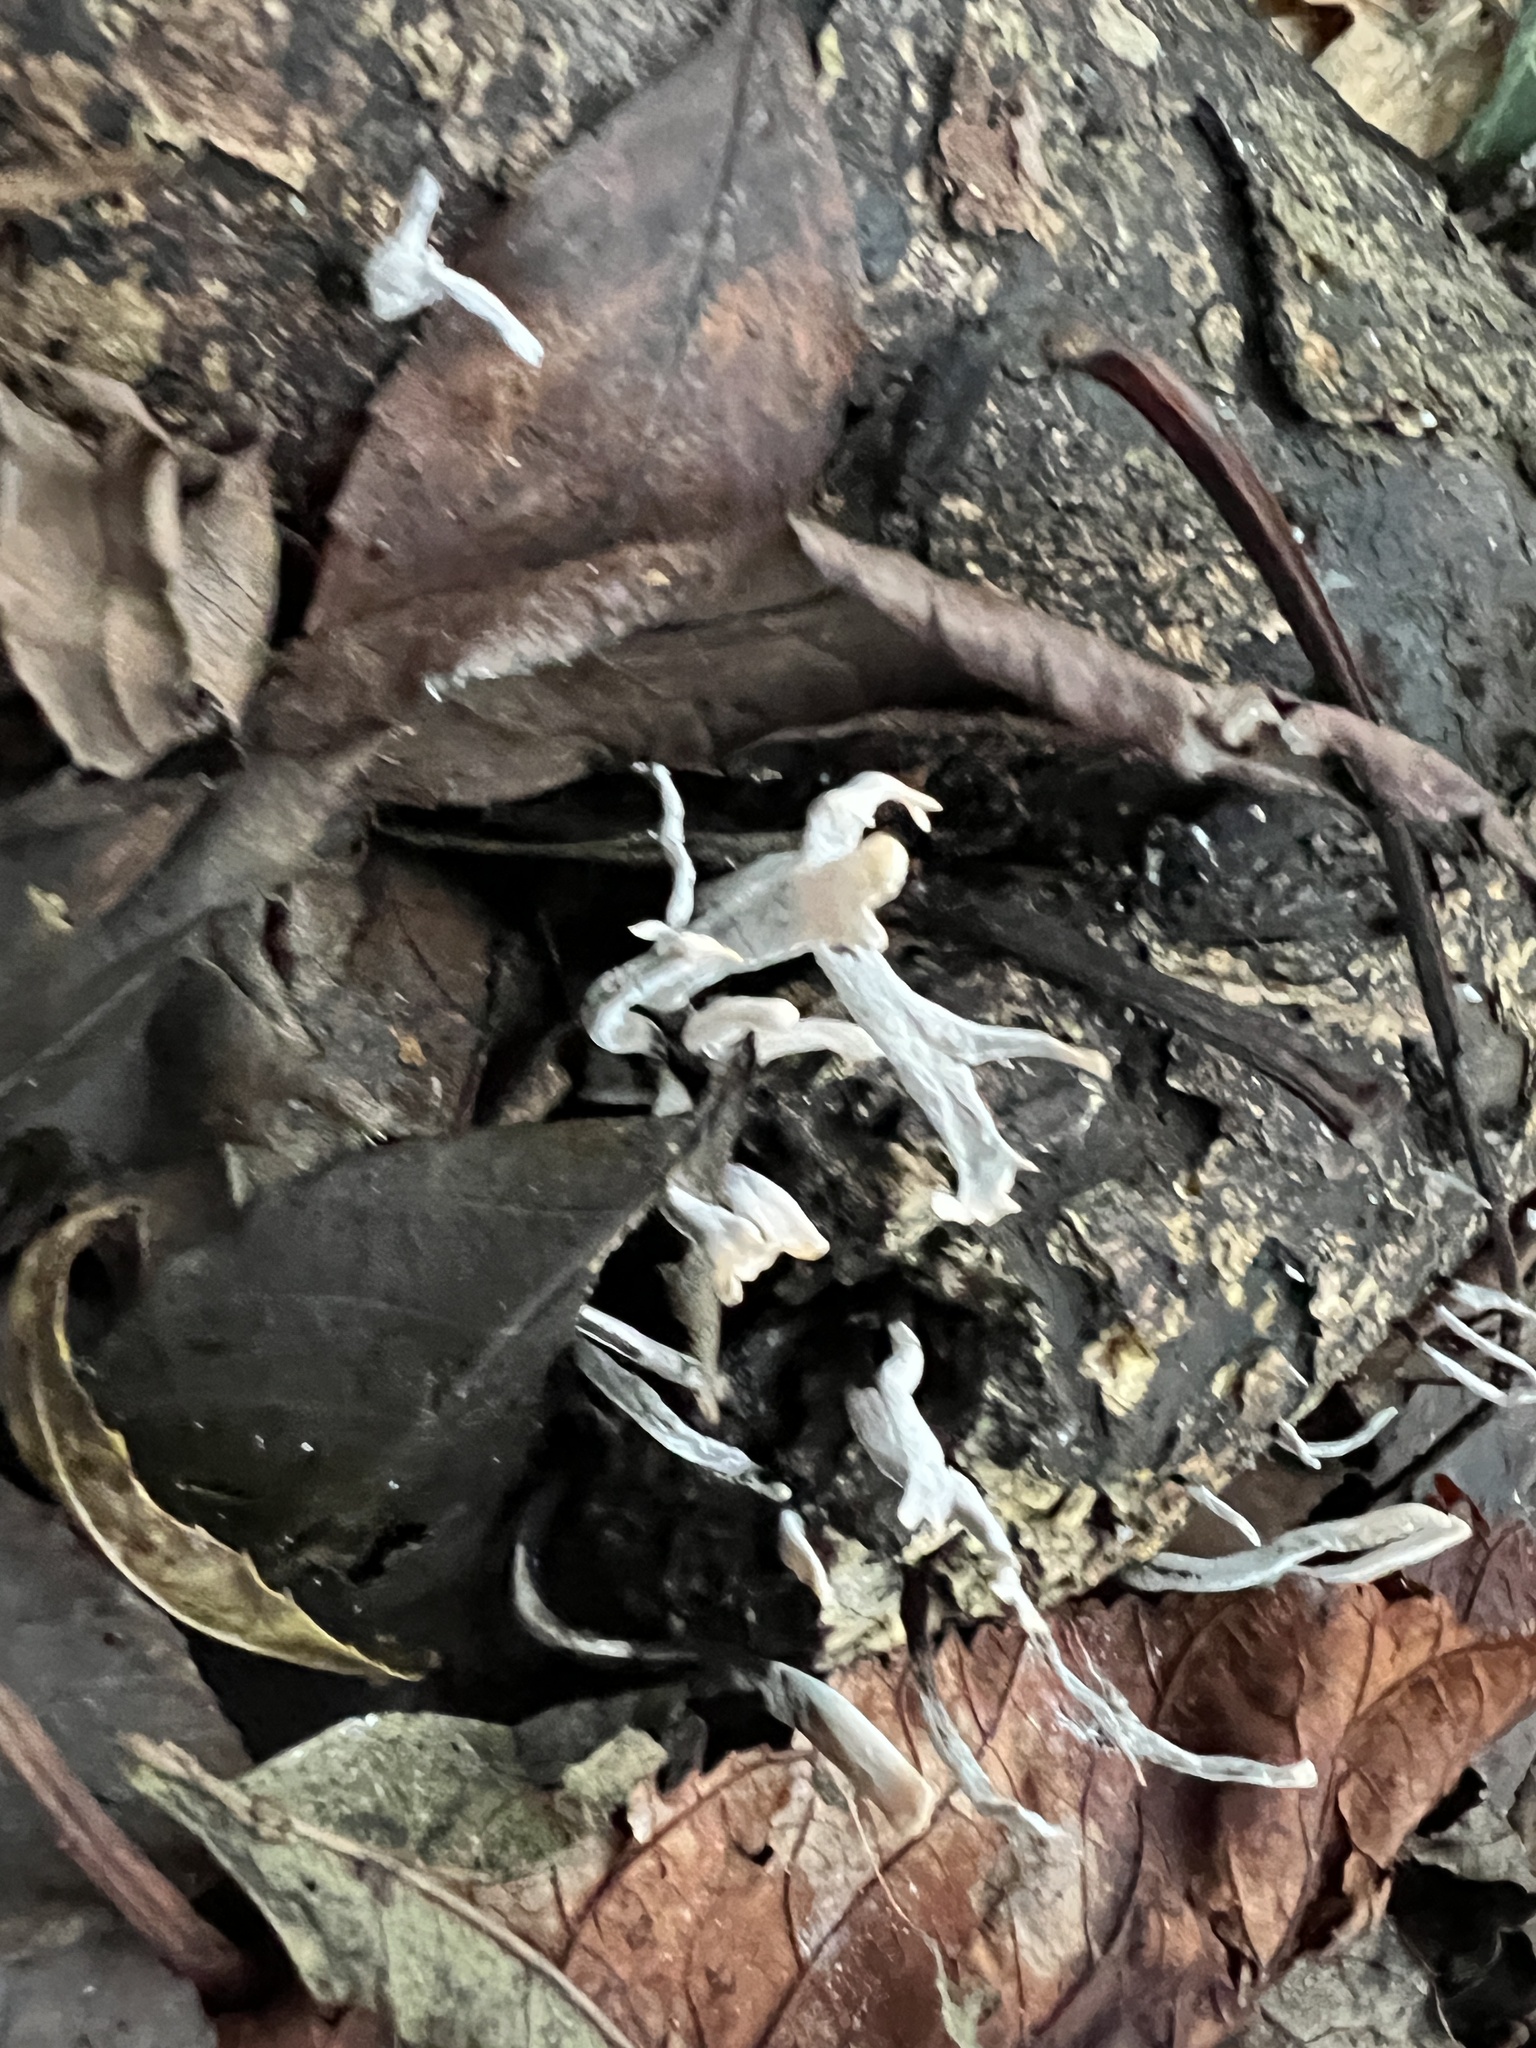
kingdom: Fungi
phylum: Ascomycota
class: Sordariomycetes
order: Xylariales
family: Xylariaceae
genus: Xylaria
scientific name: Xylaria hypoxylon
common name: Candle-snuff fungus
